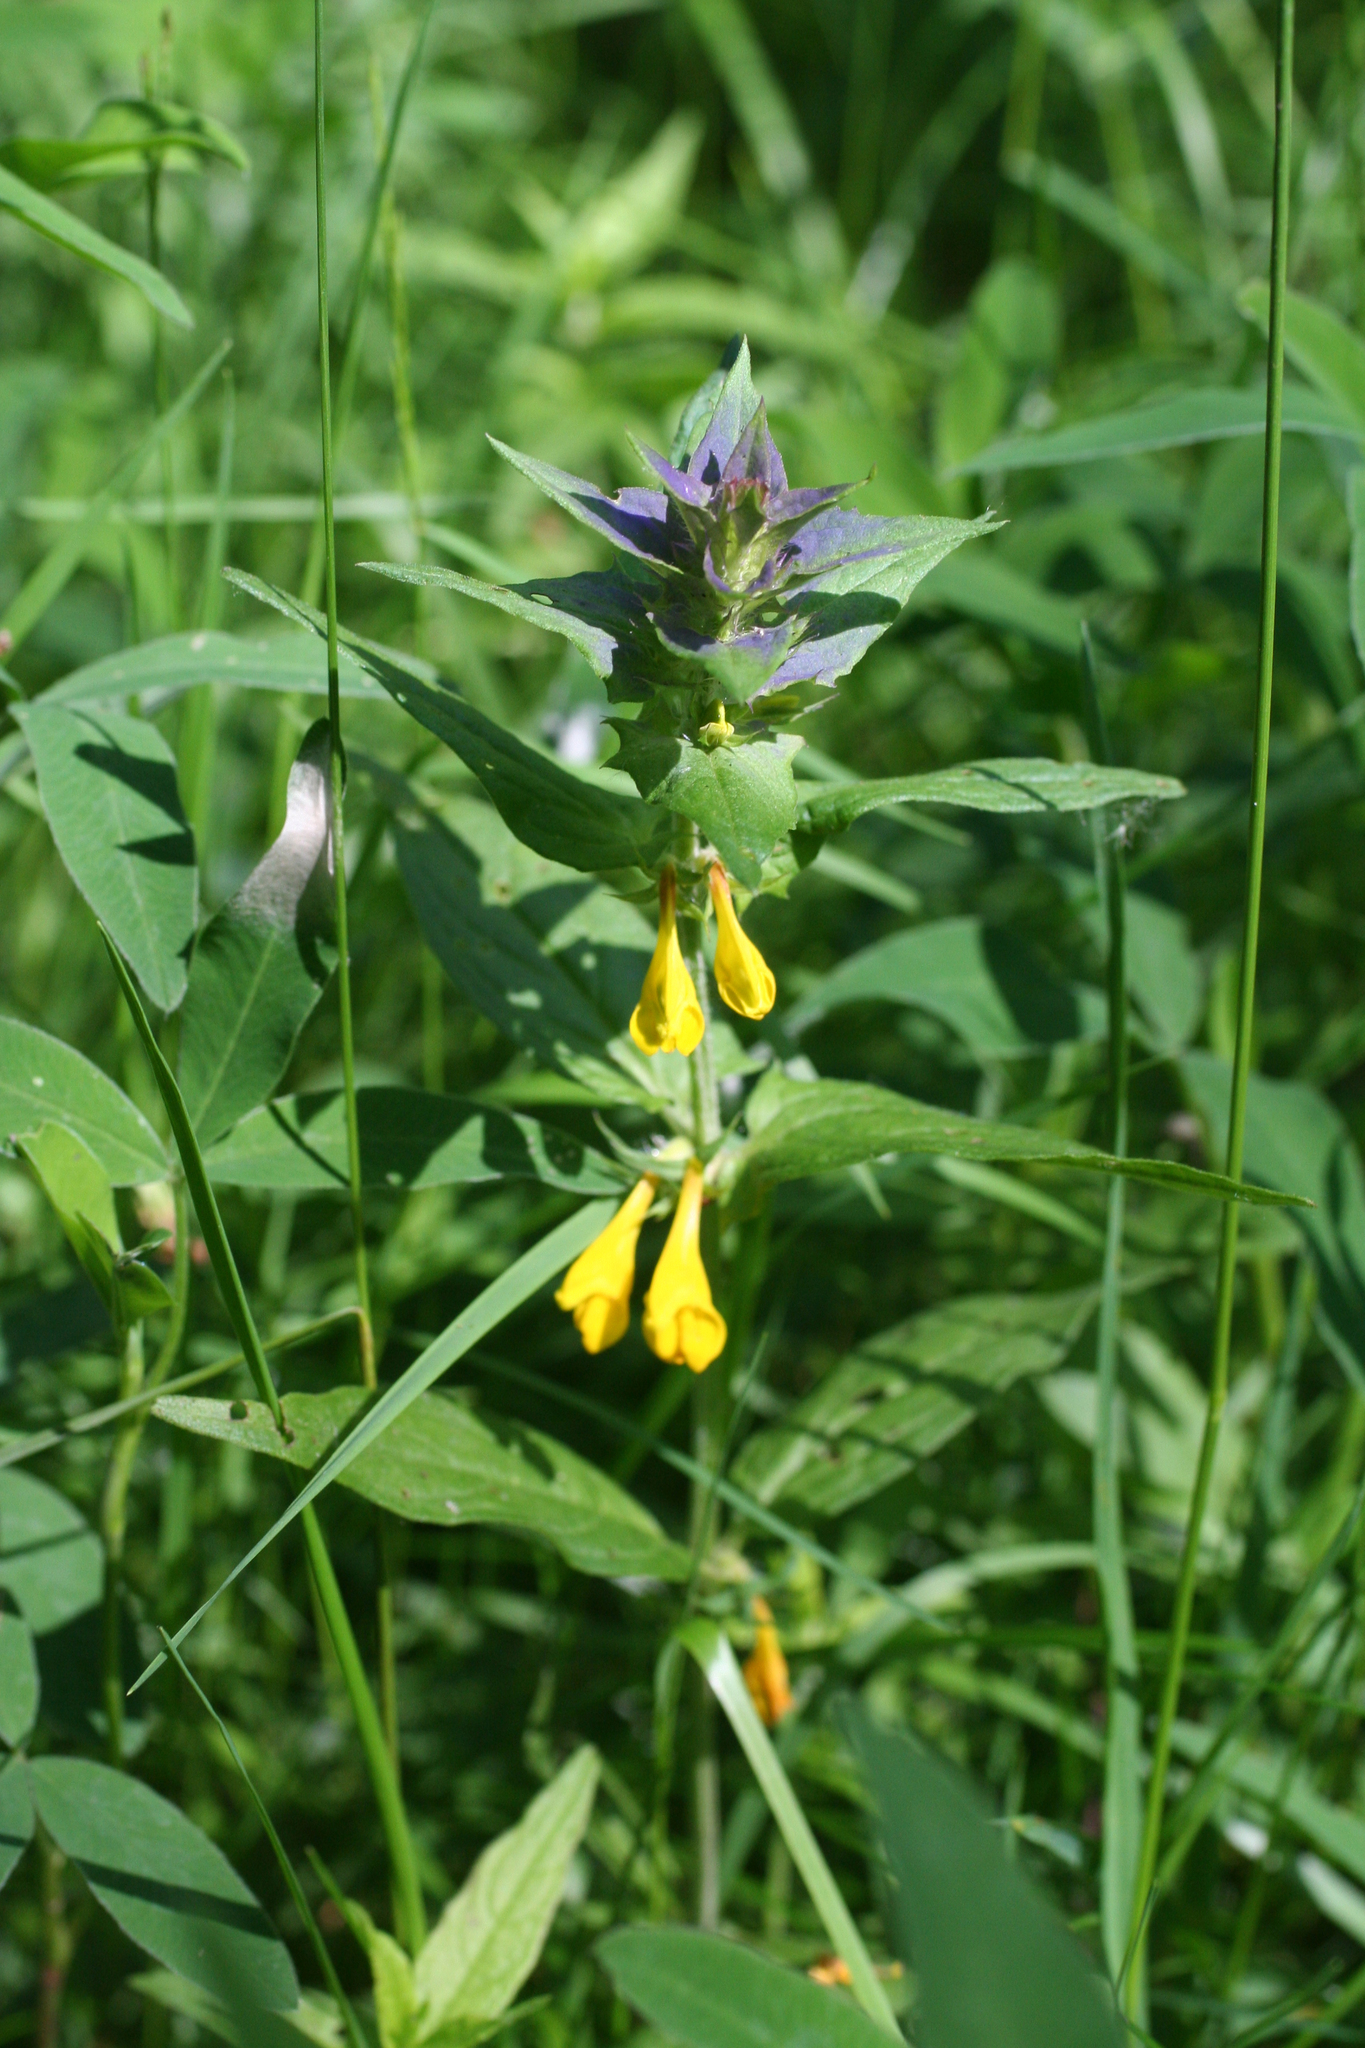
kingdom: Plantae
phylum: Tracheophyta
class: Magnoliopsida
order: Lamiales
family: Orobanchaceae
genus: Melampyrum
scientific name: Melampyrum nemorosum
